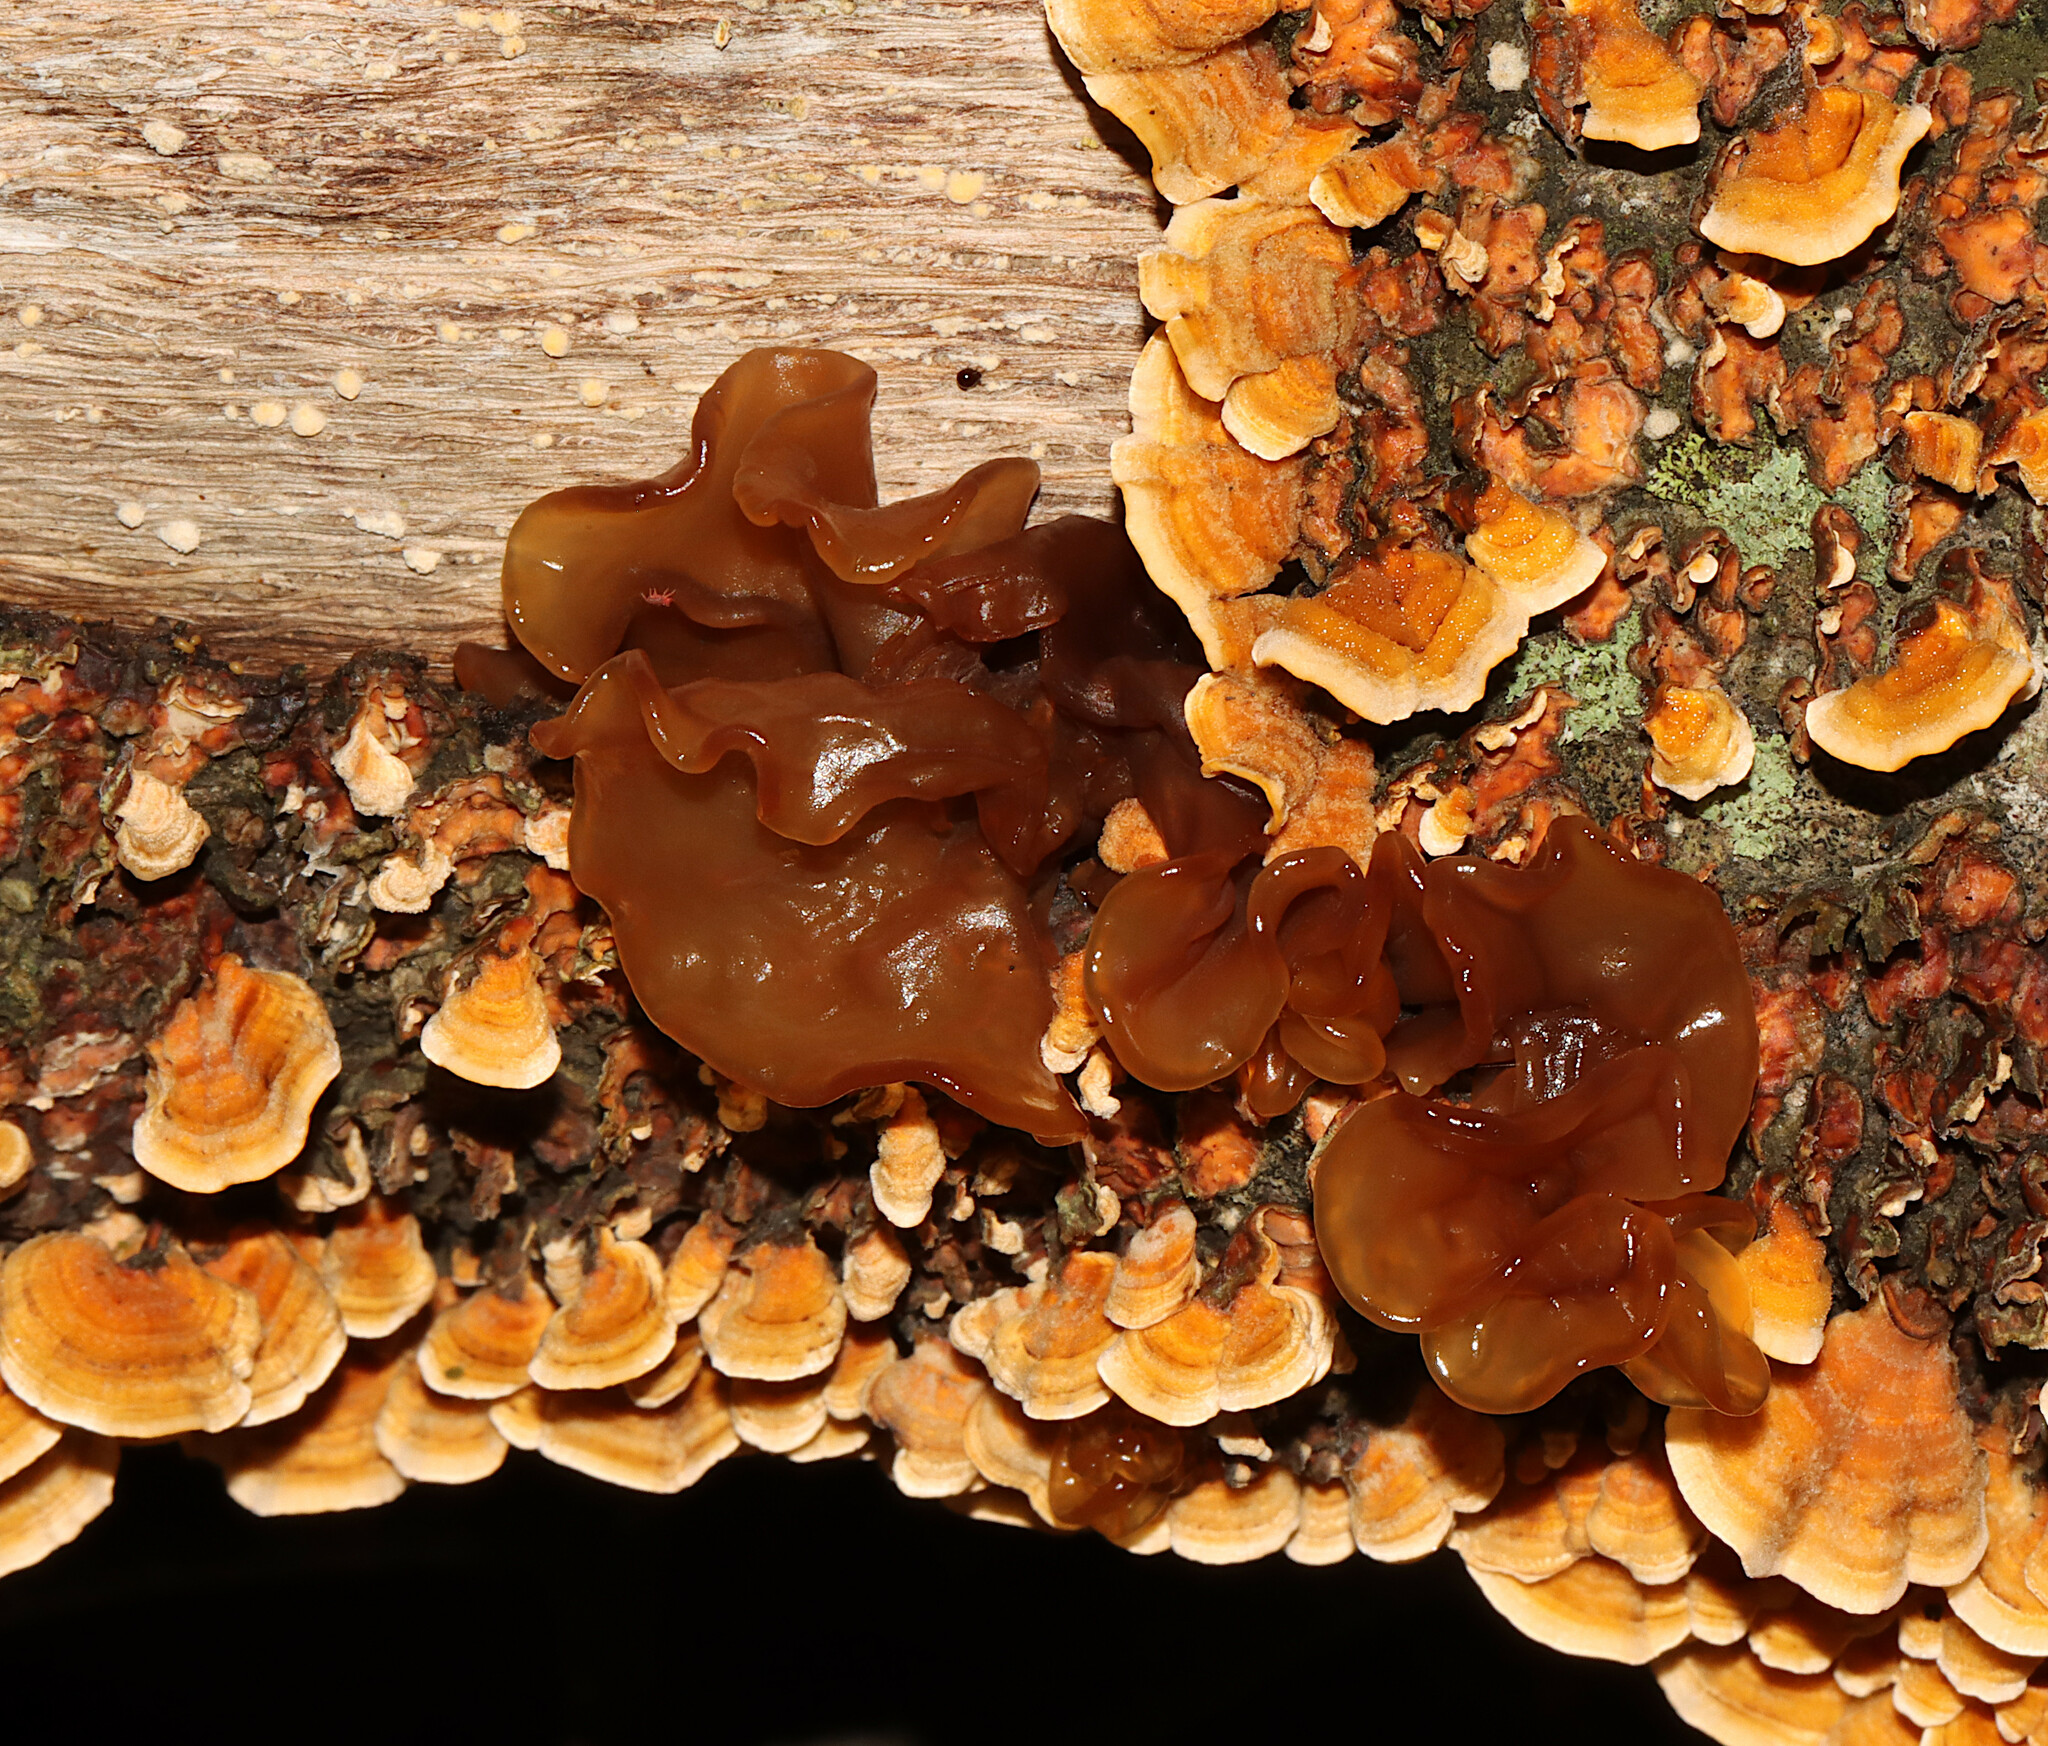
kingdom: Fungi
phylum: Basidiomycota
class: Tremellomycetes
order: Tremellales
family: Tremellaceae
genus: Phaeotremella
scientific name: Phaeotremella frondosa
